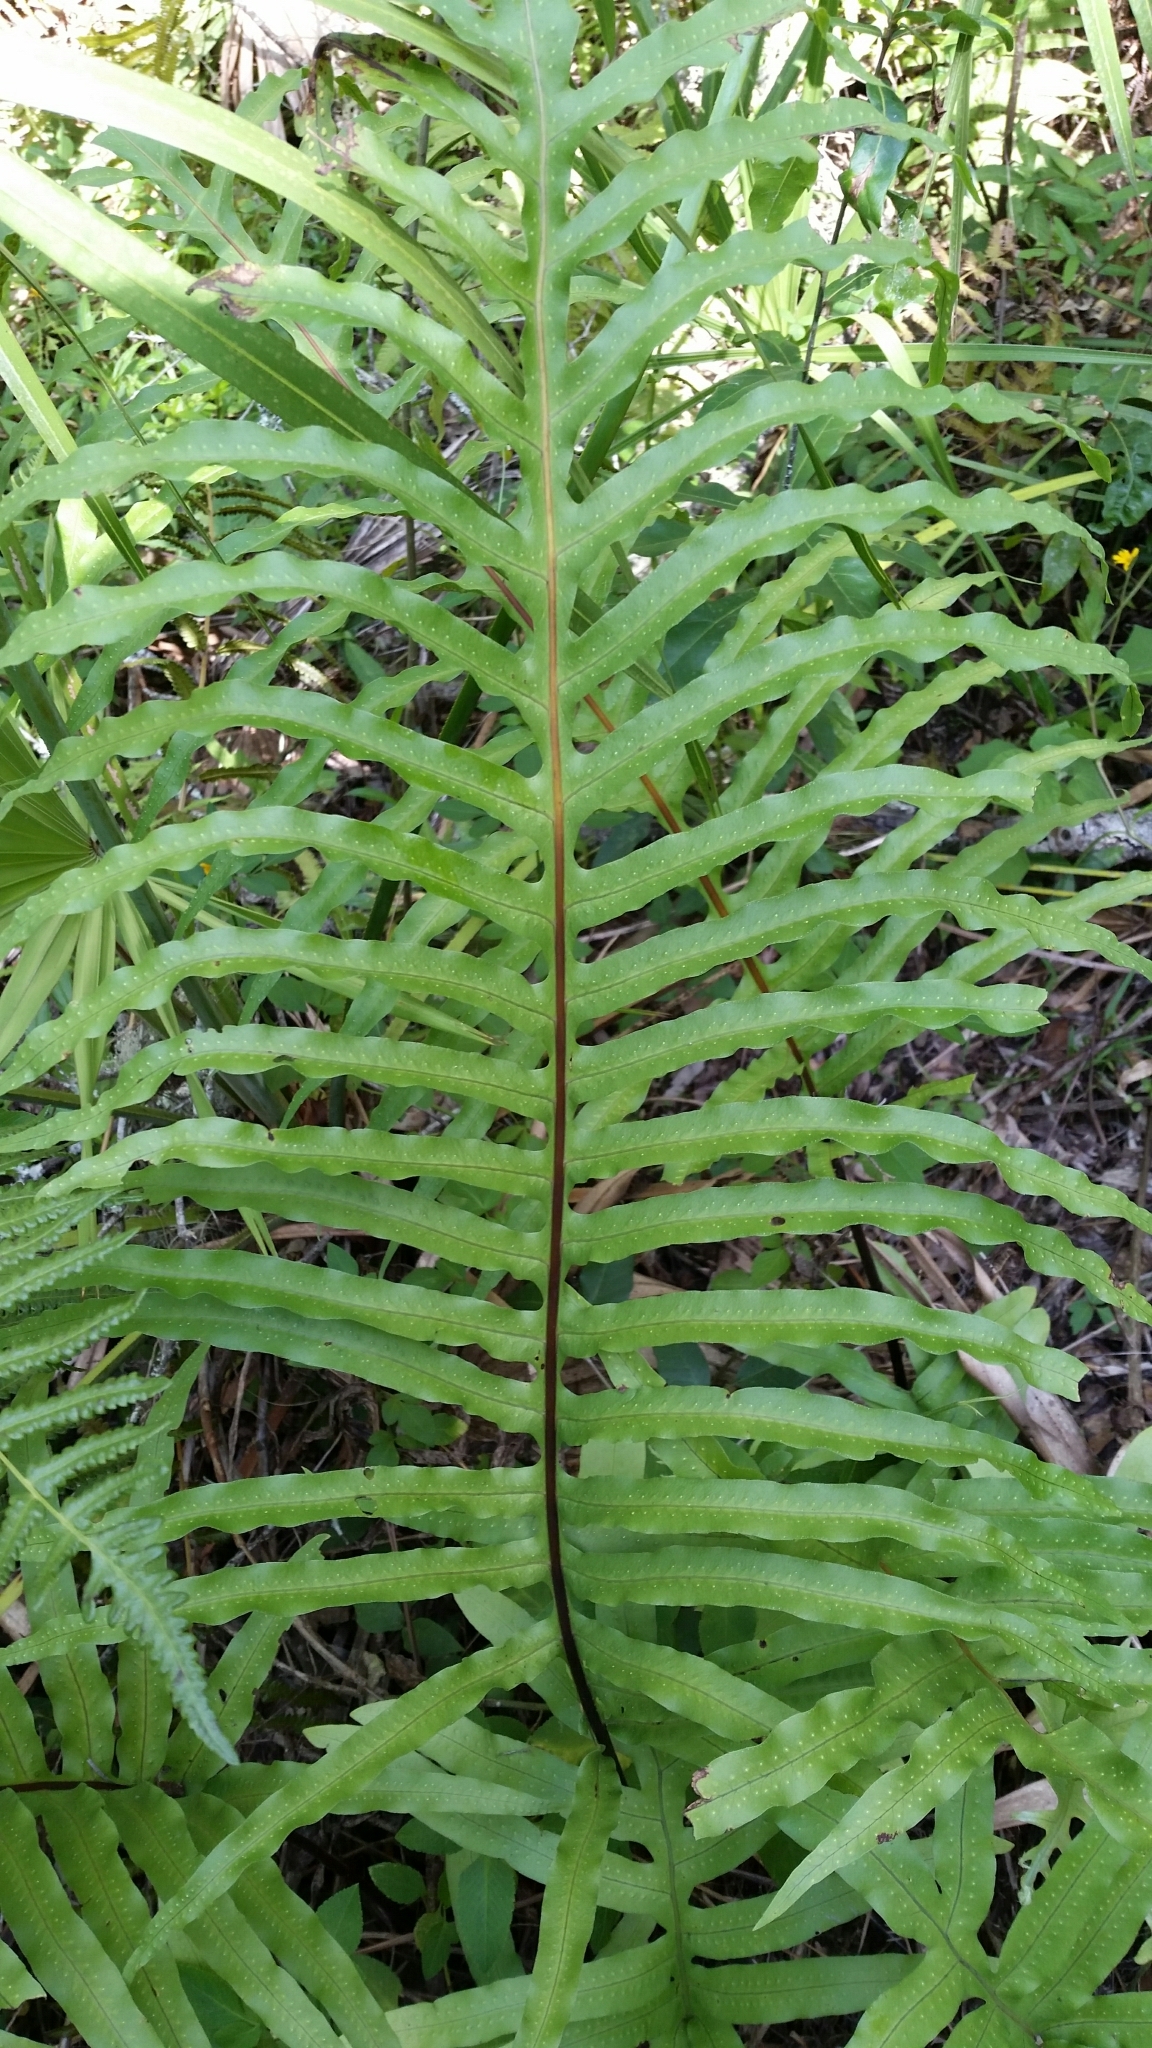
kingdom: Plantae
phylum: Tracheophyta
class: Polypodiopsida
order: Polypodiales
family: Polypodiaceae
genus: Phlebodium
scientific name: Phlebodium aureum
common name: Gold-foot fern
